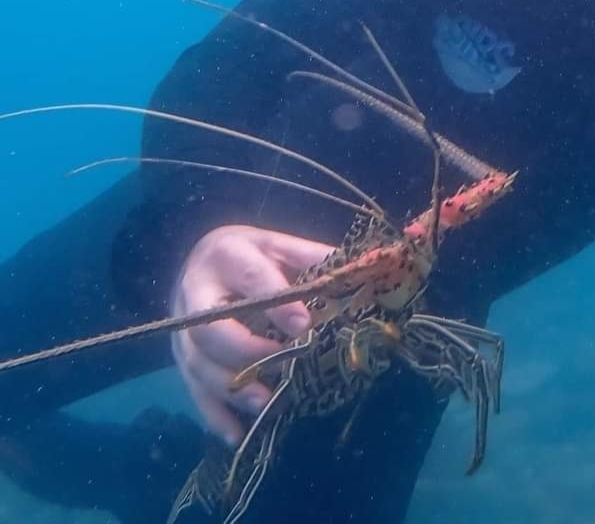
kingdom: Animalia
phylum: Arthropoda
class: Malacostraca
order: Decapoda
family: Palinuridae
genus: Panulirus
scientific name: Panulirus versicolor
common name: Painted spiny lobster
